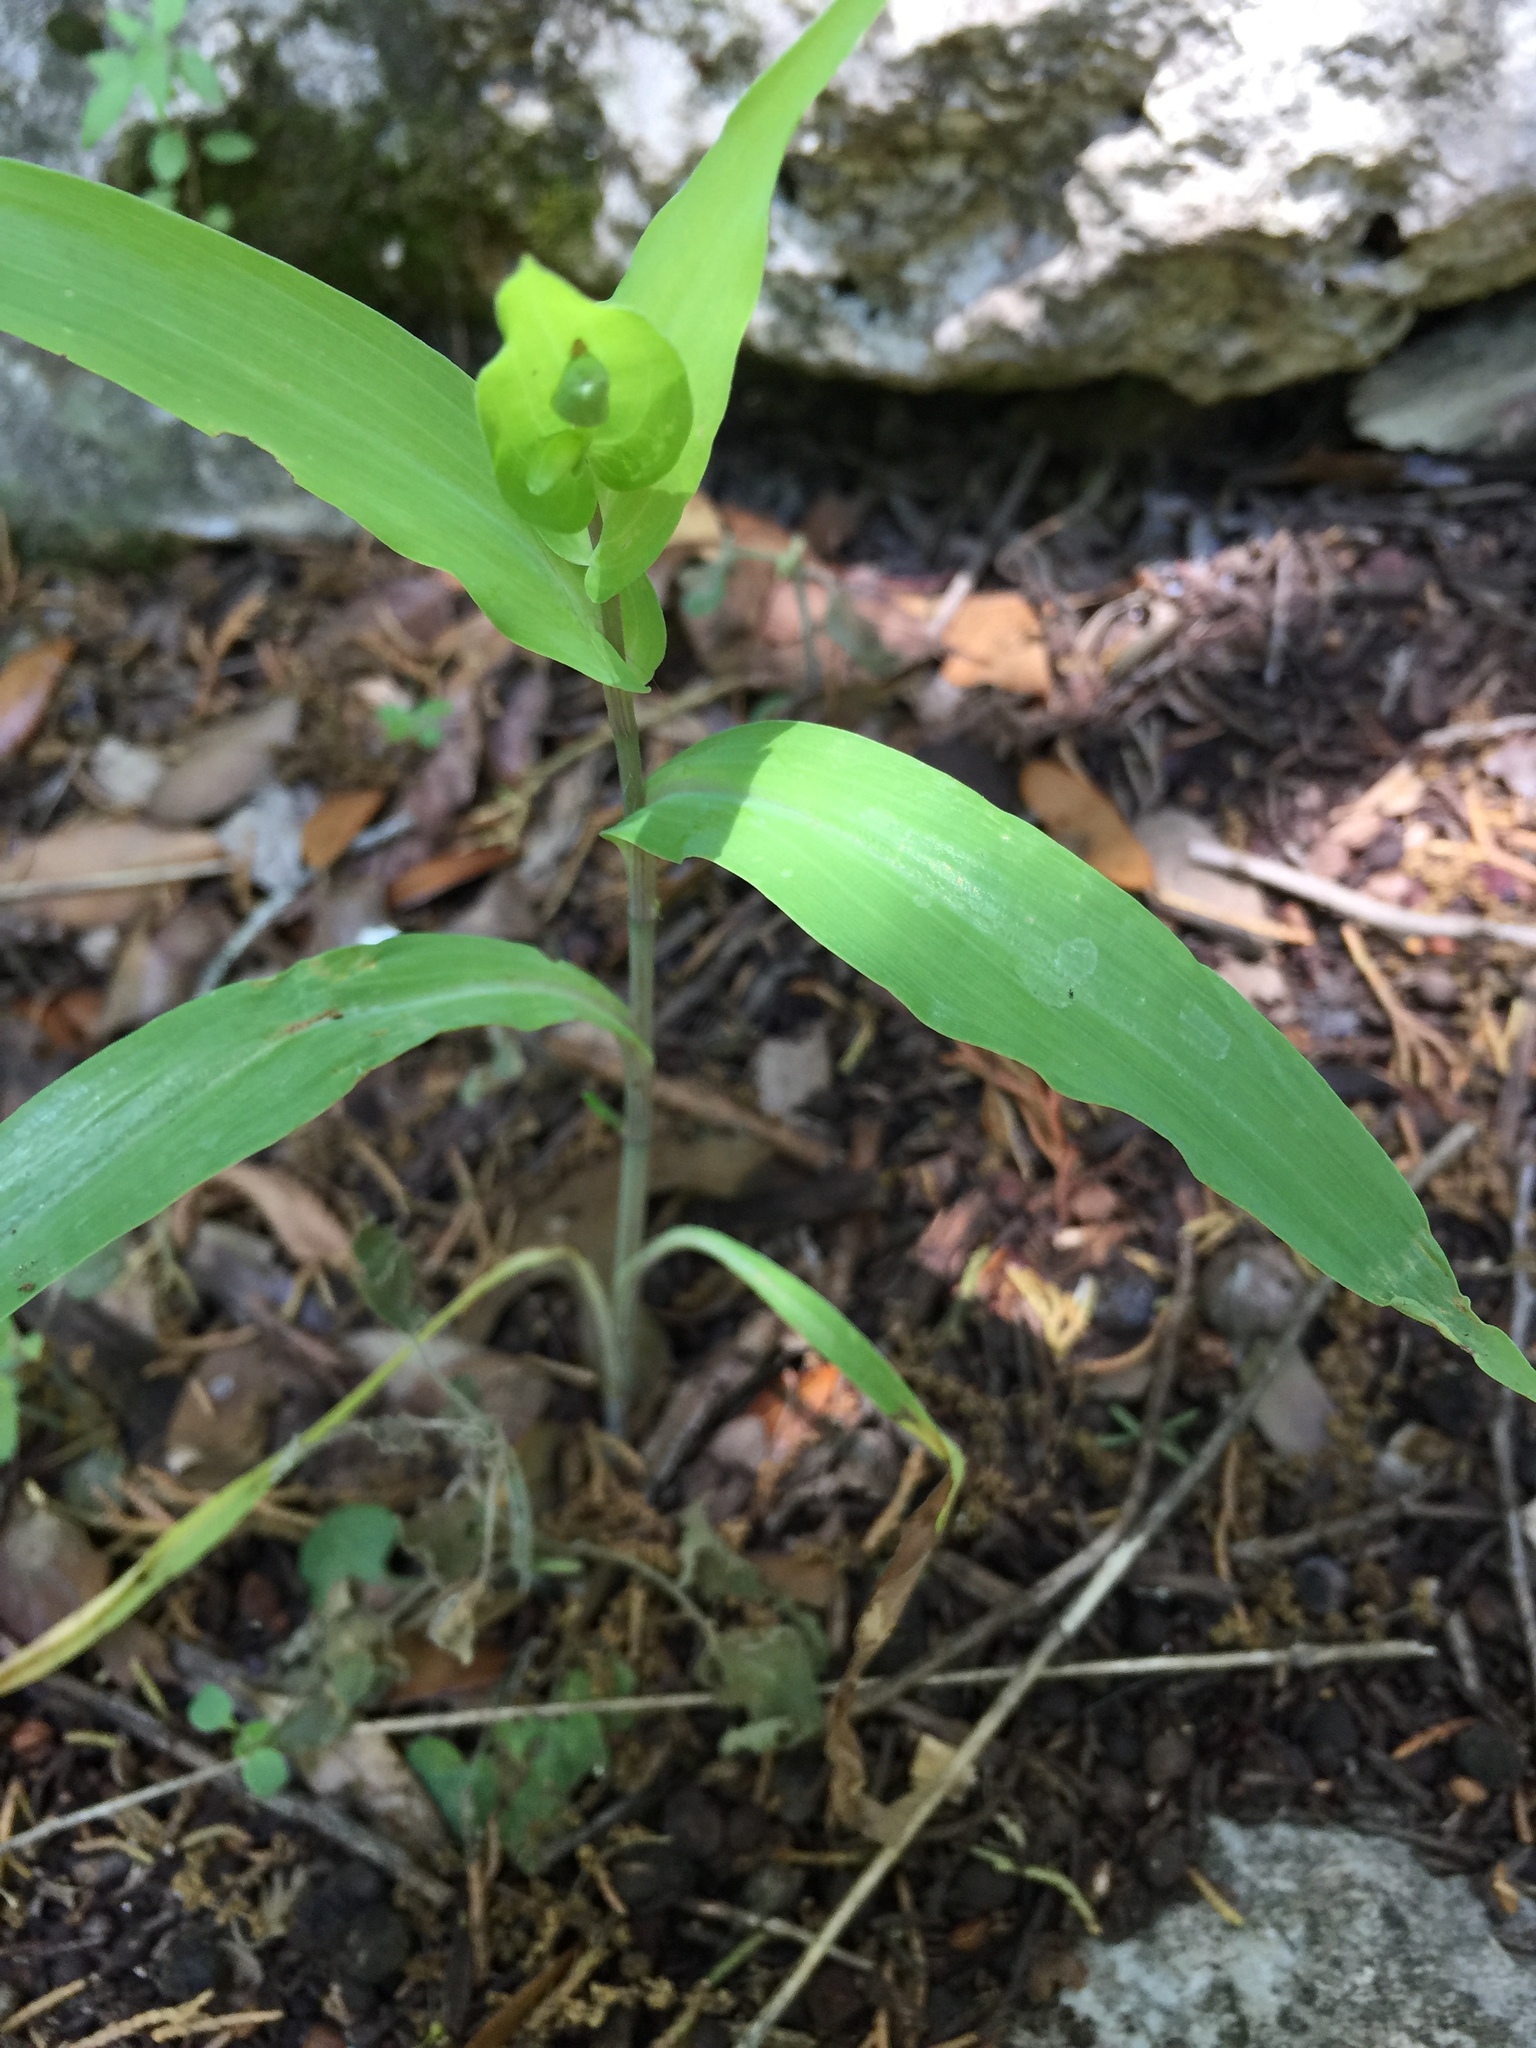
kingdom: Plantae
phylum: Tracheophyta
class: Liliopsida
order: Commelinales
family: Commelinaceae
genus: Tinantia
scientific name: Tinantia anomala
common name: False dayflower
